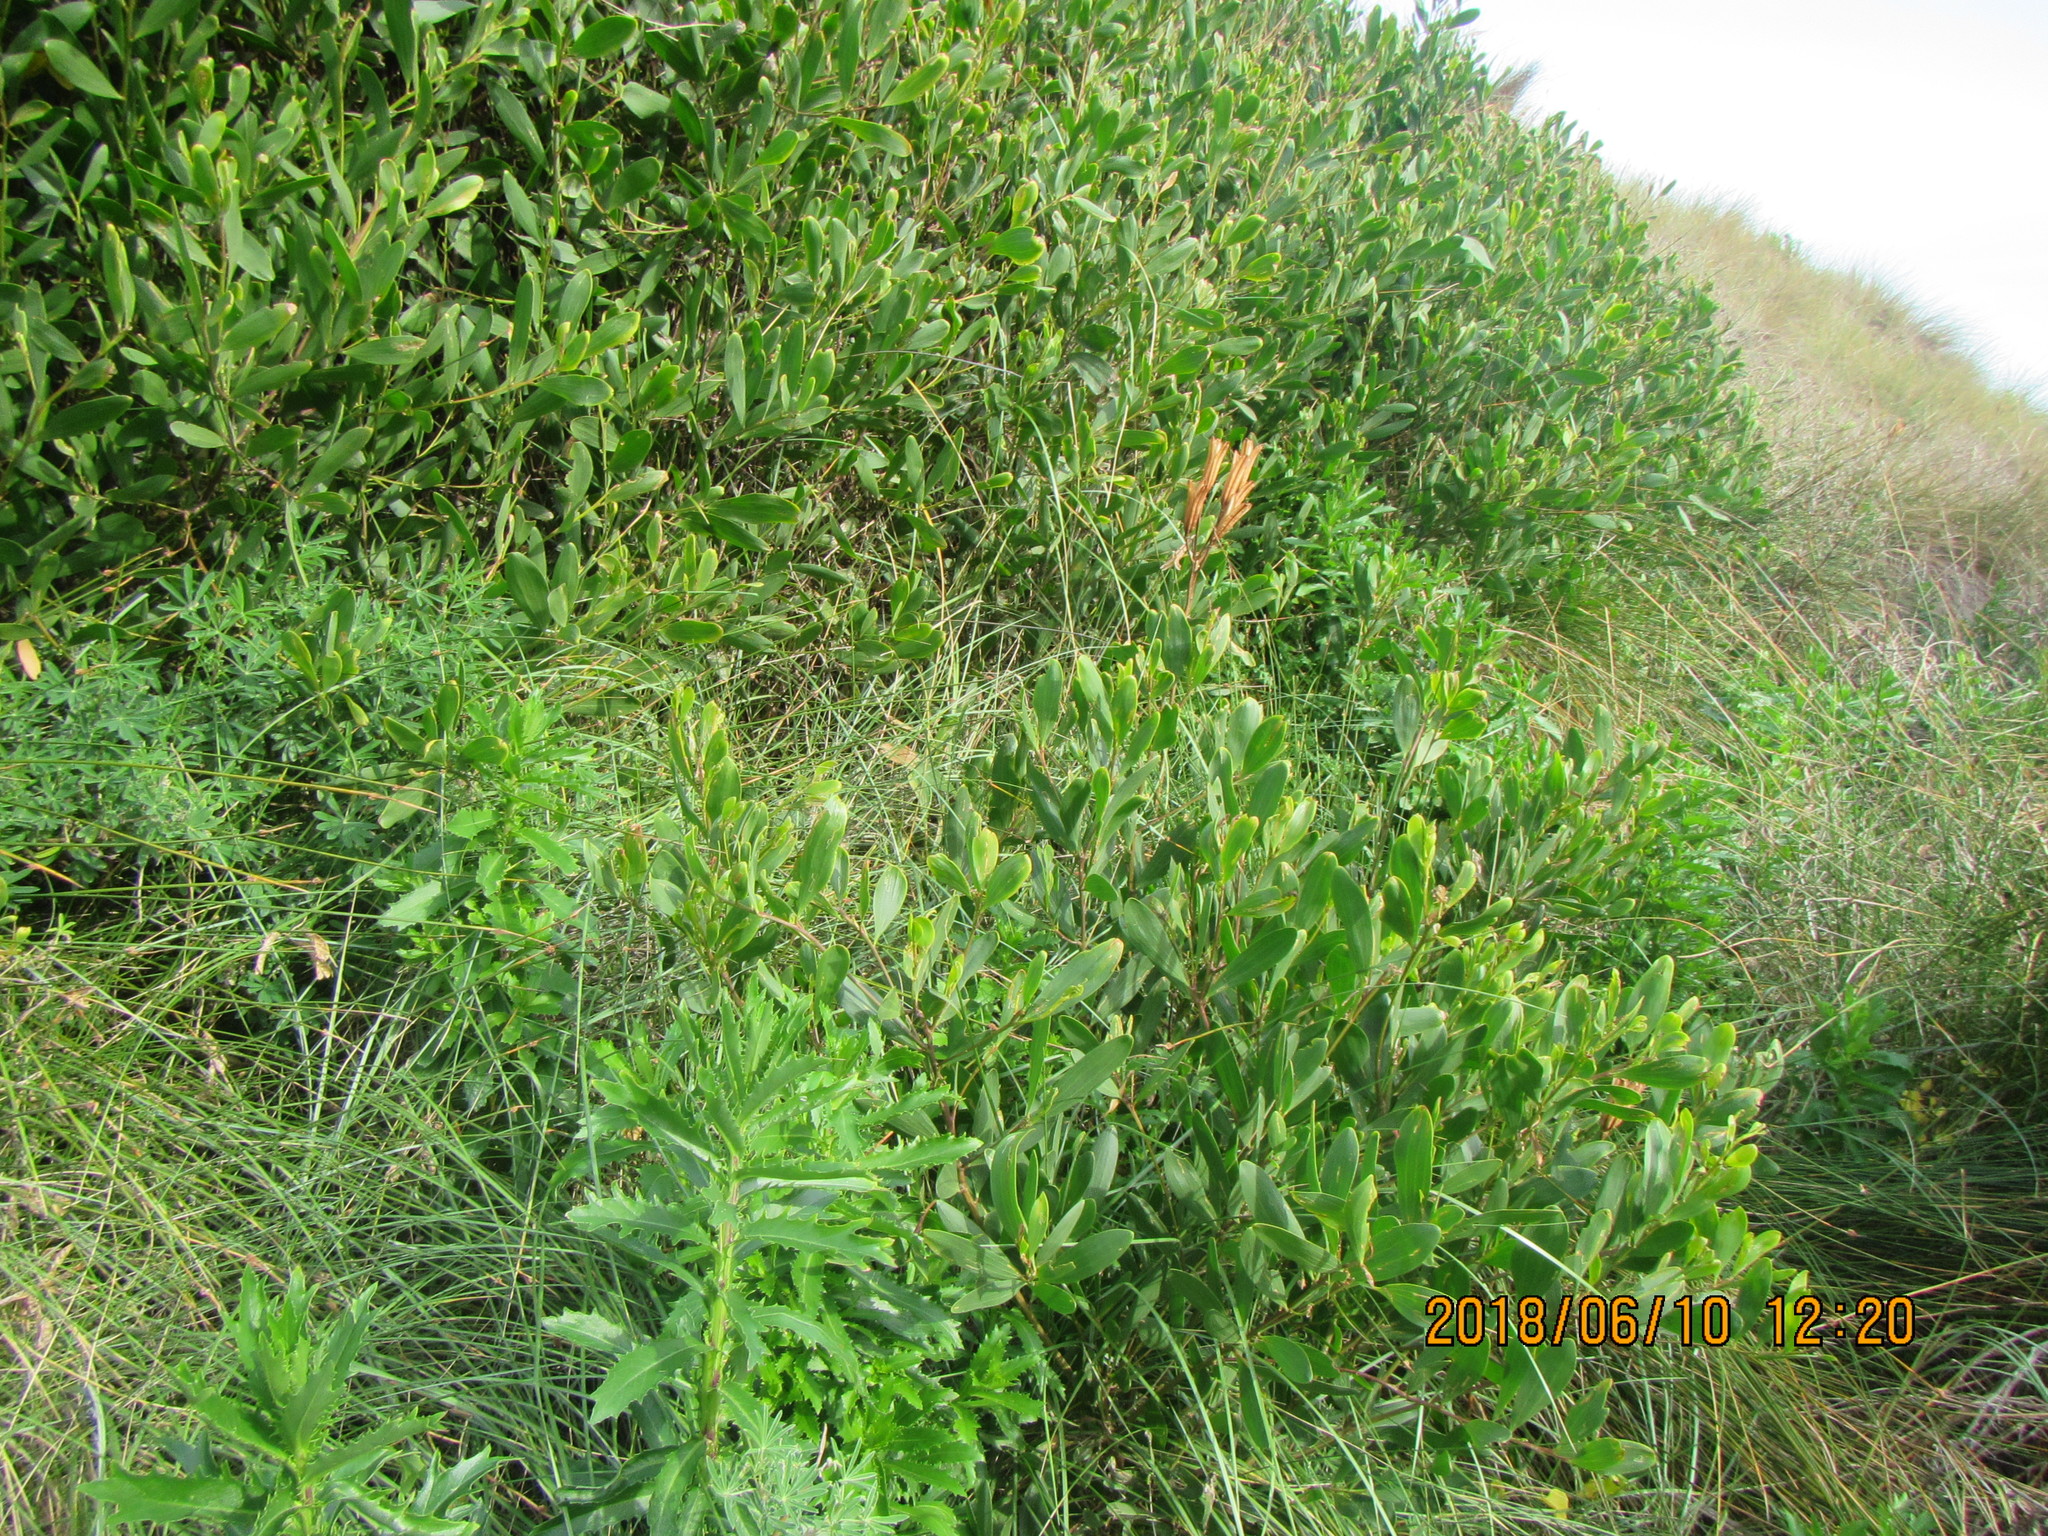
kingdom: Plantae
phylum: Tracheophyta
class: Magnoliopsida
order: Fabales
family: Fabaceae
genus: Acacia
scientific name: Acacia longifolia
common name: Sydney golden wattle
